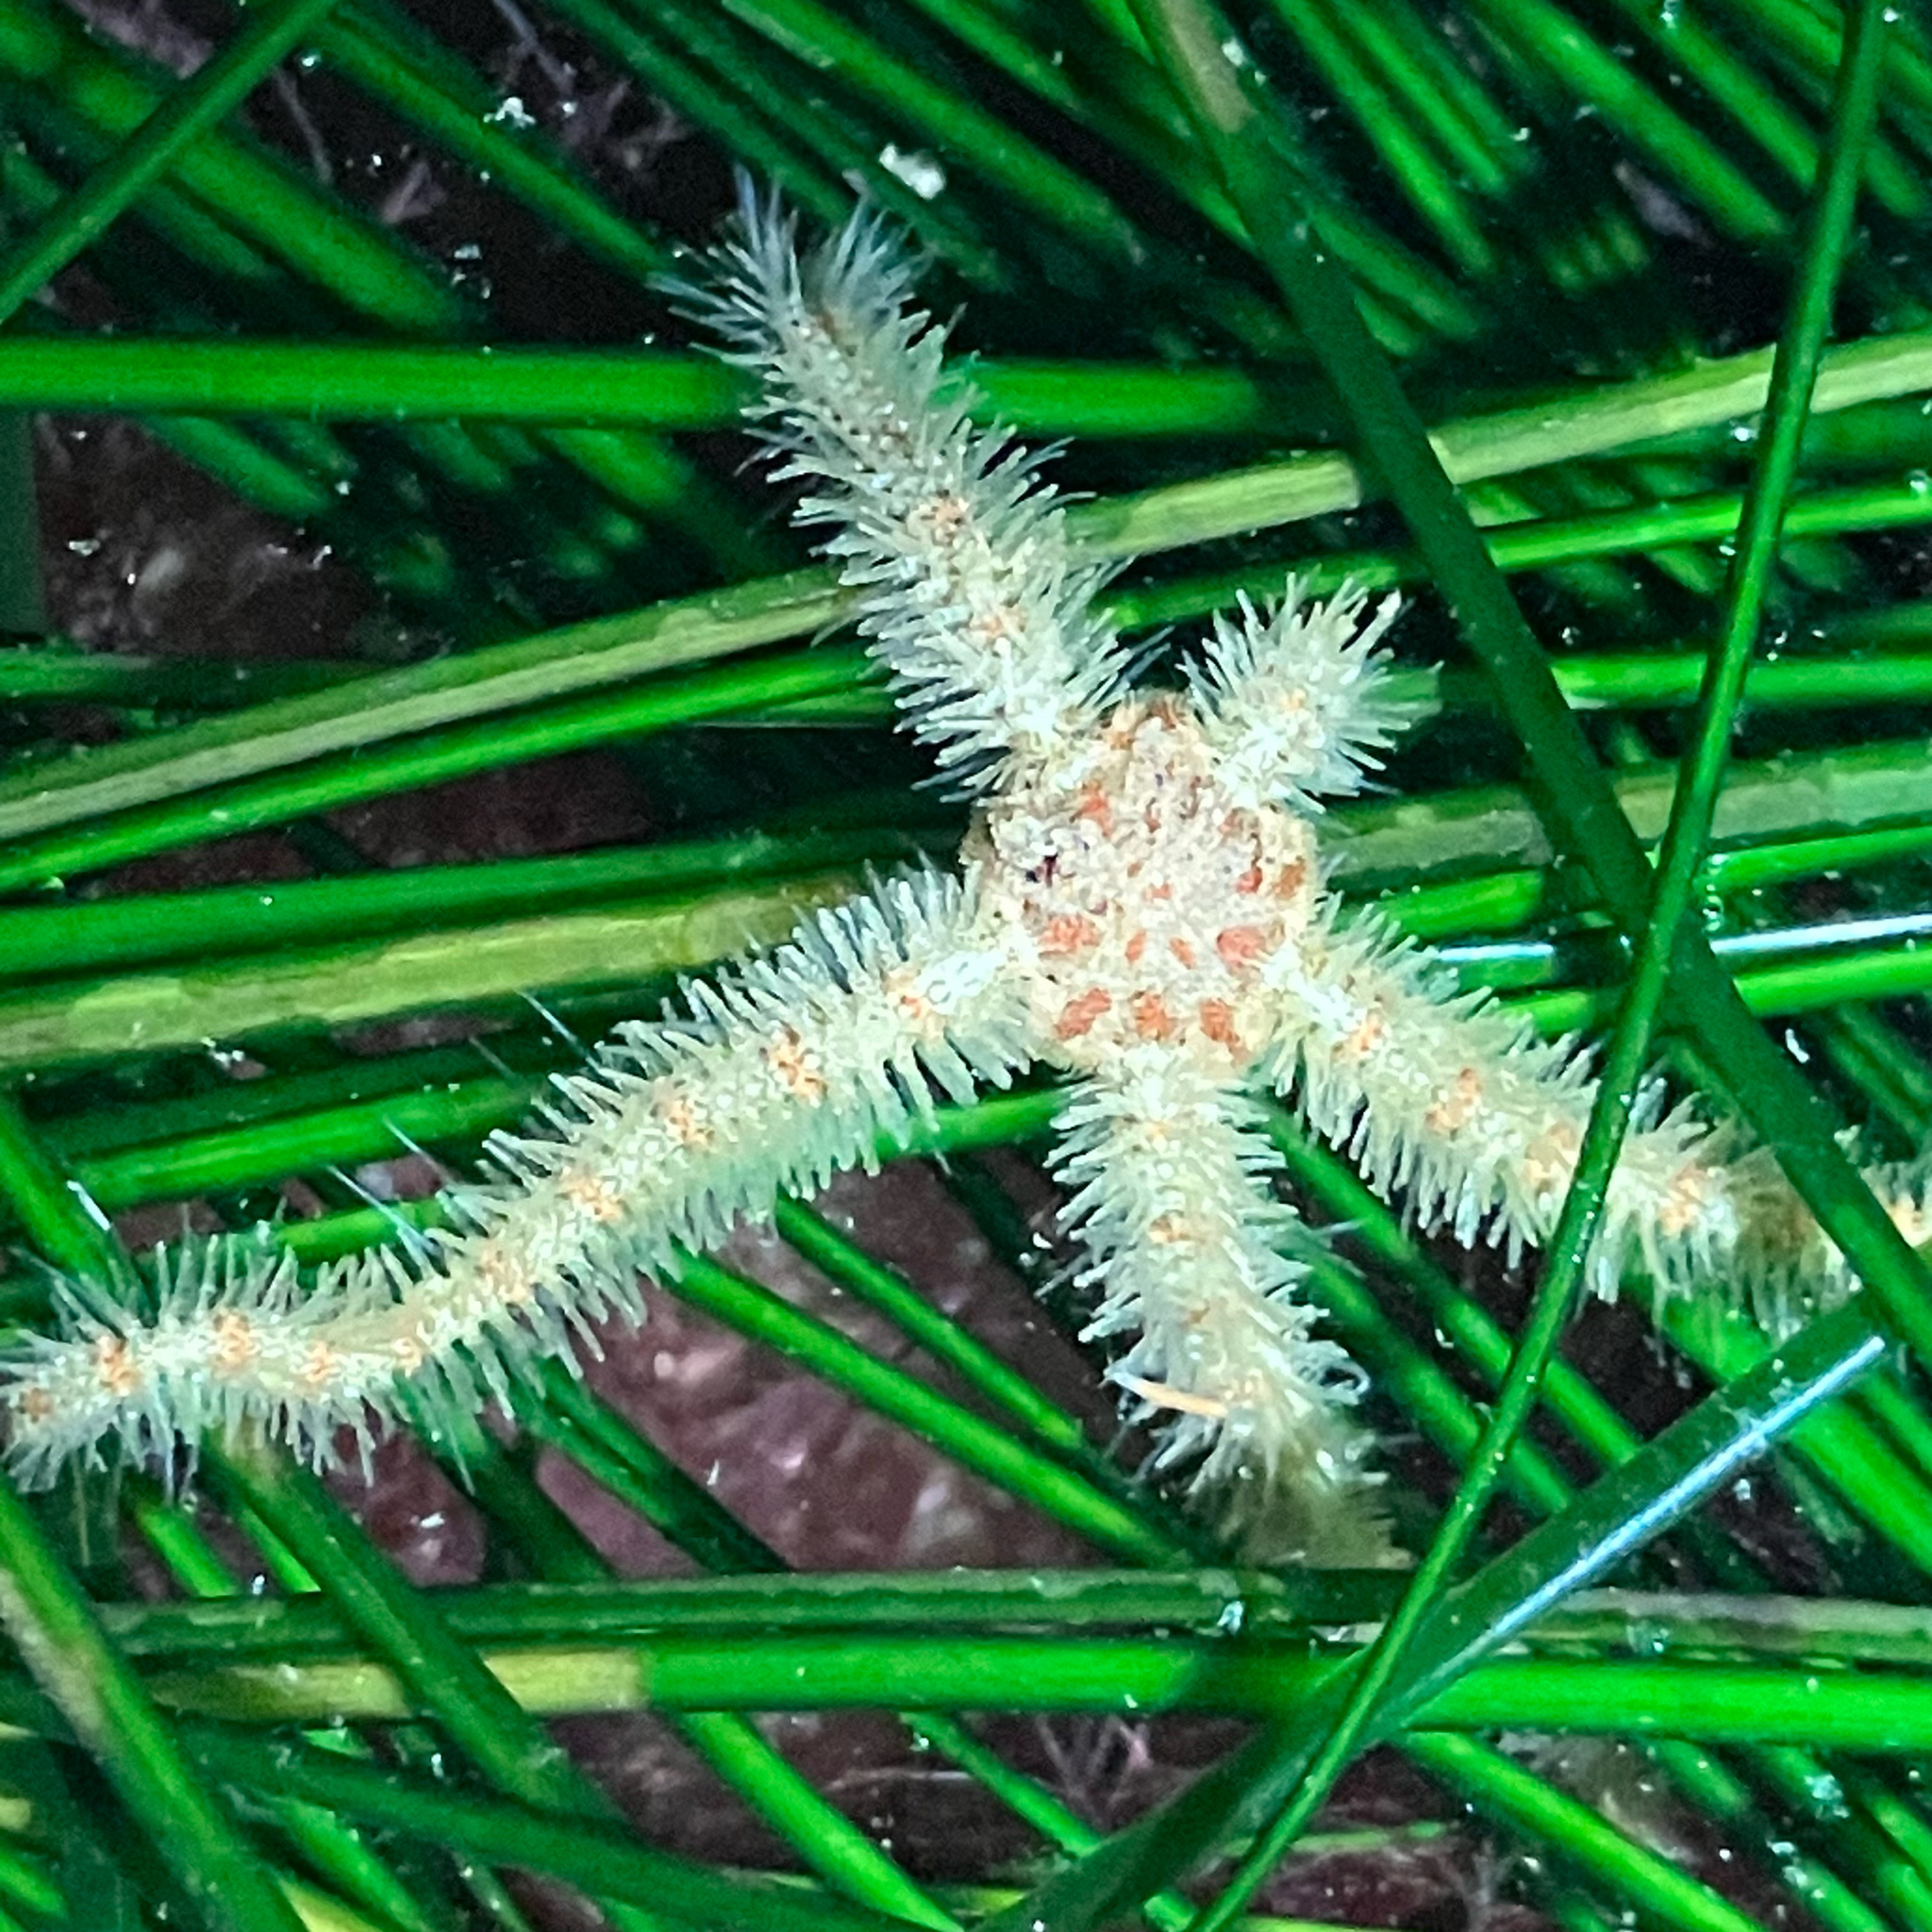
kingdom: Animalia
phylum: Echinodermata
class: Ophiuroidea
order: Amphilepidida
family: Ophiotrichidae
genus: Ophiothrix
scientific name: Ophiothrix spiculata
